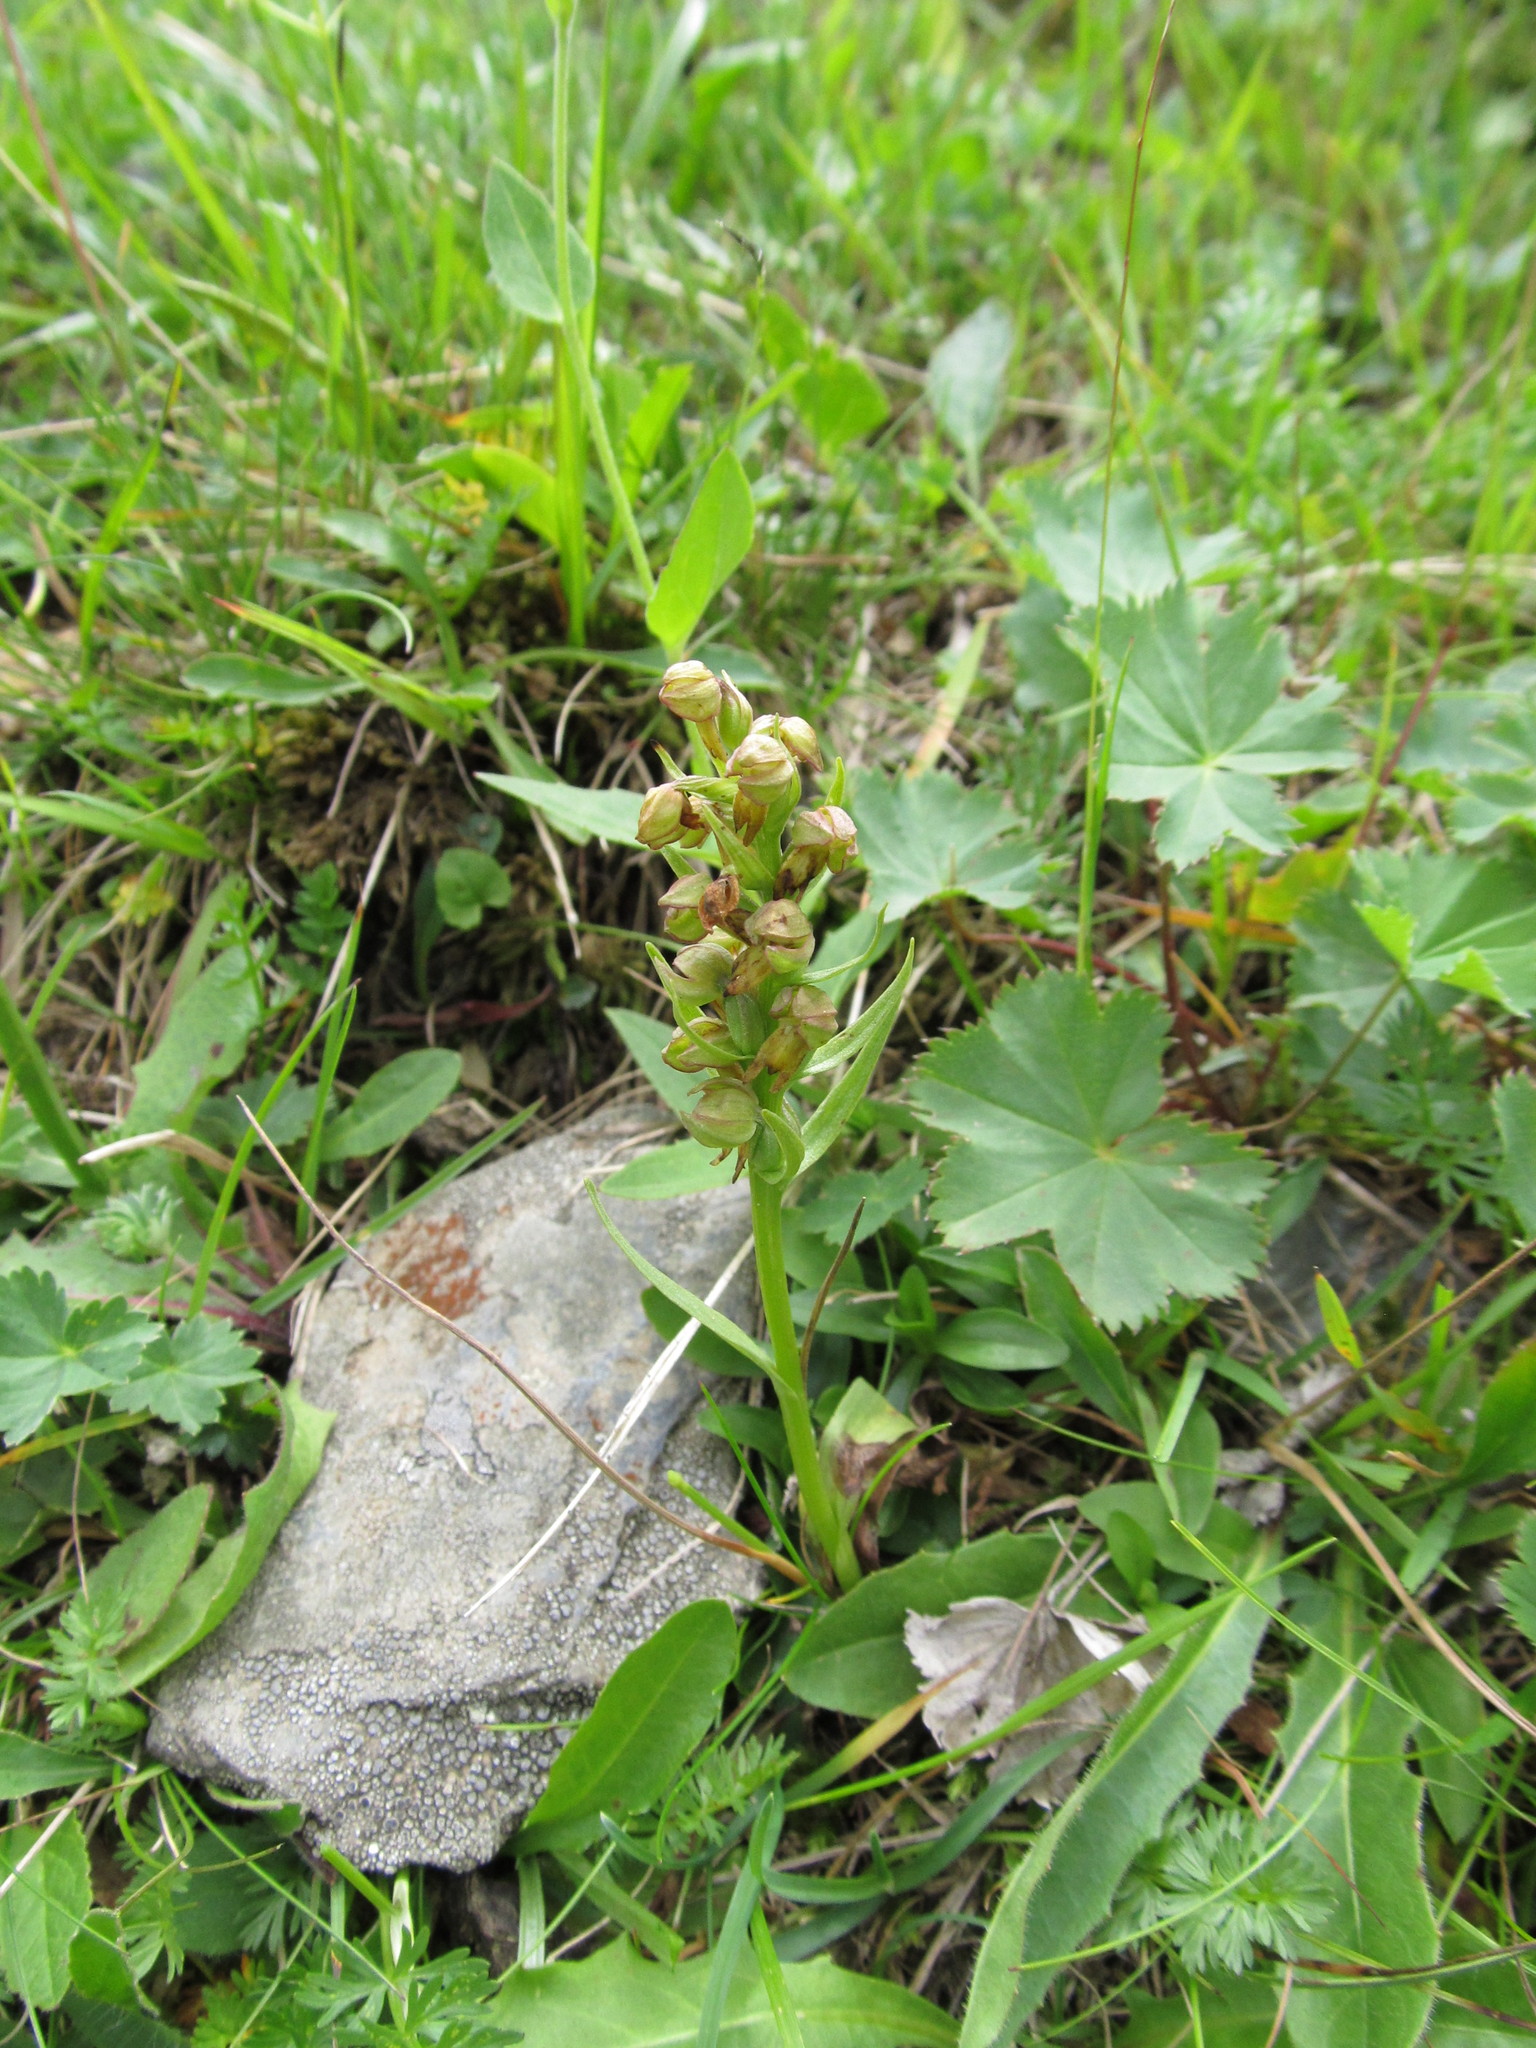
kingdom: Plantae
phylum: Tracheophyta
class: Liliopsida
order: Asparagales
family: Orchidaceae
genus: Dactylorhiza
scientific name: Dactylorhiza viridis
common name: Longbract frog orchid
